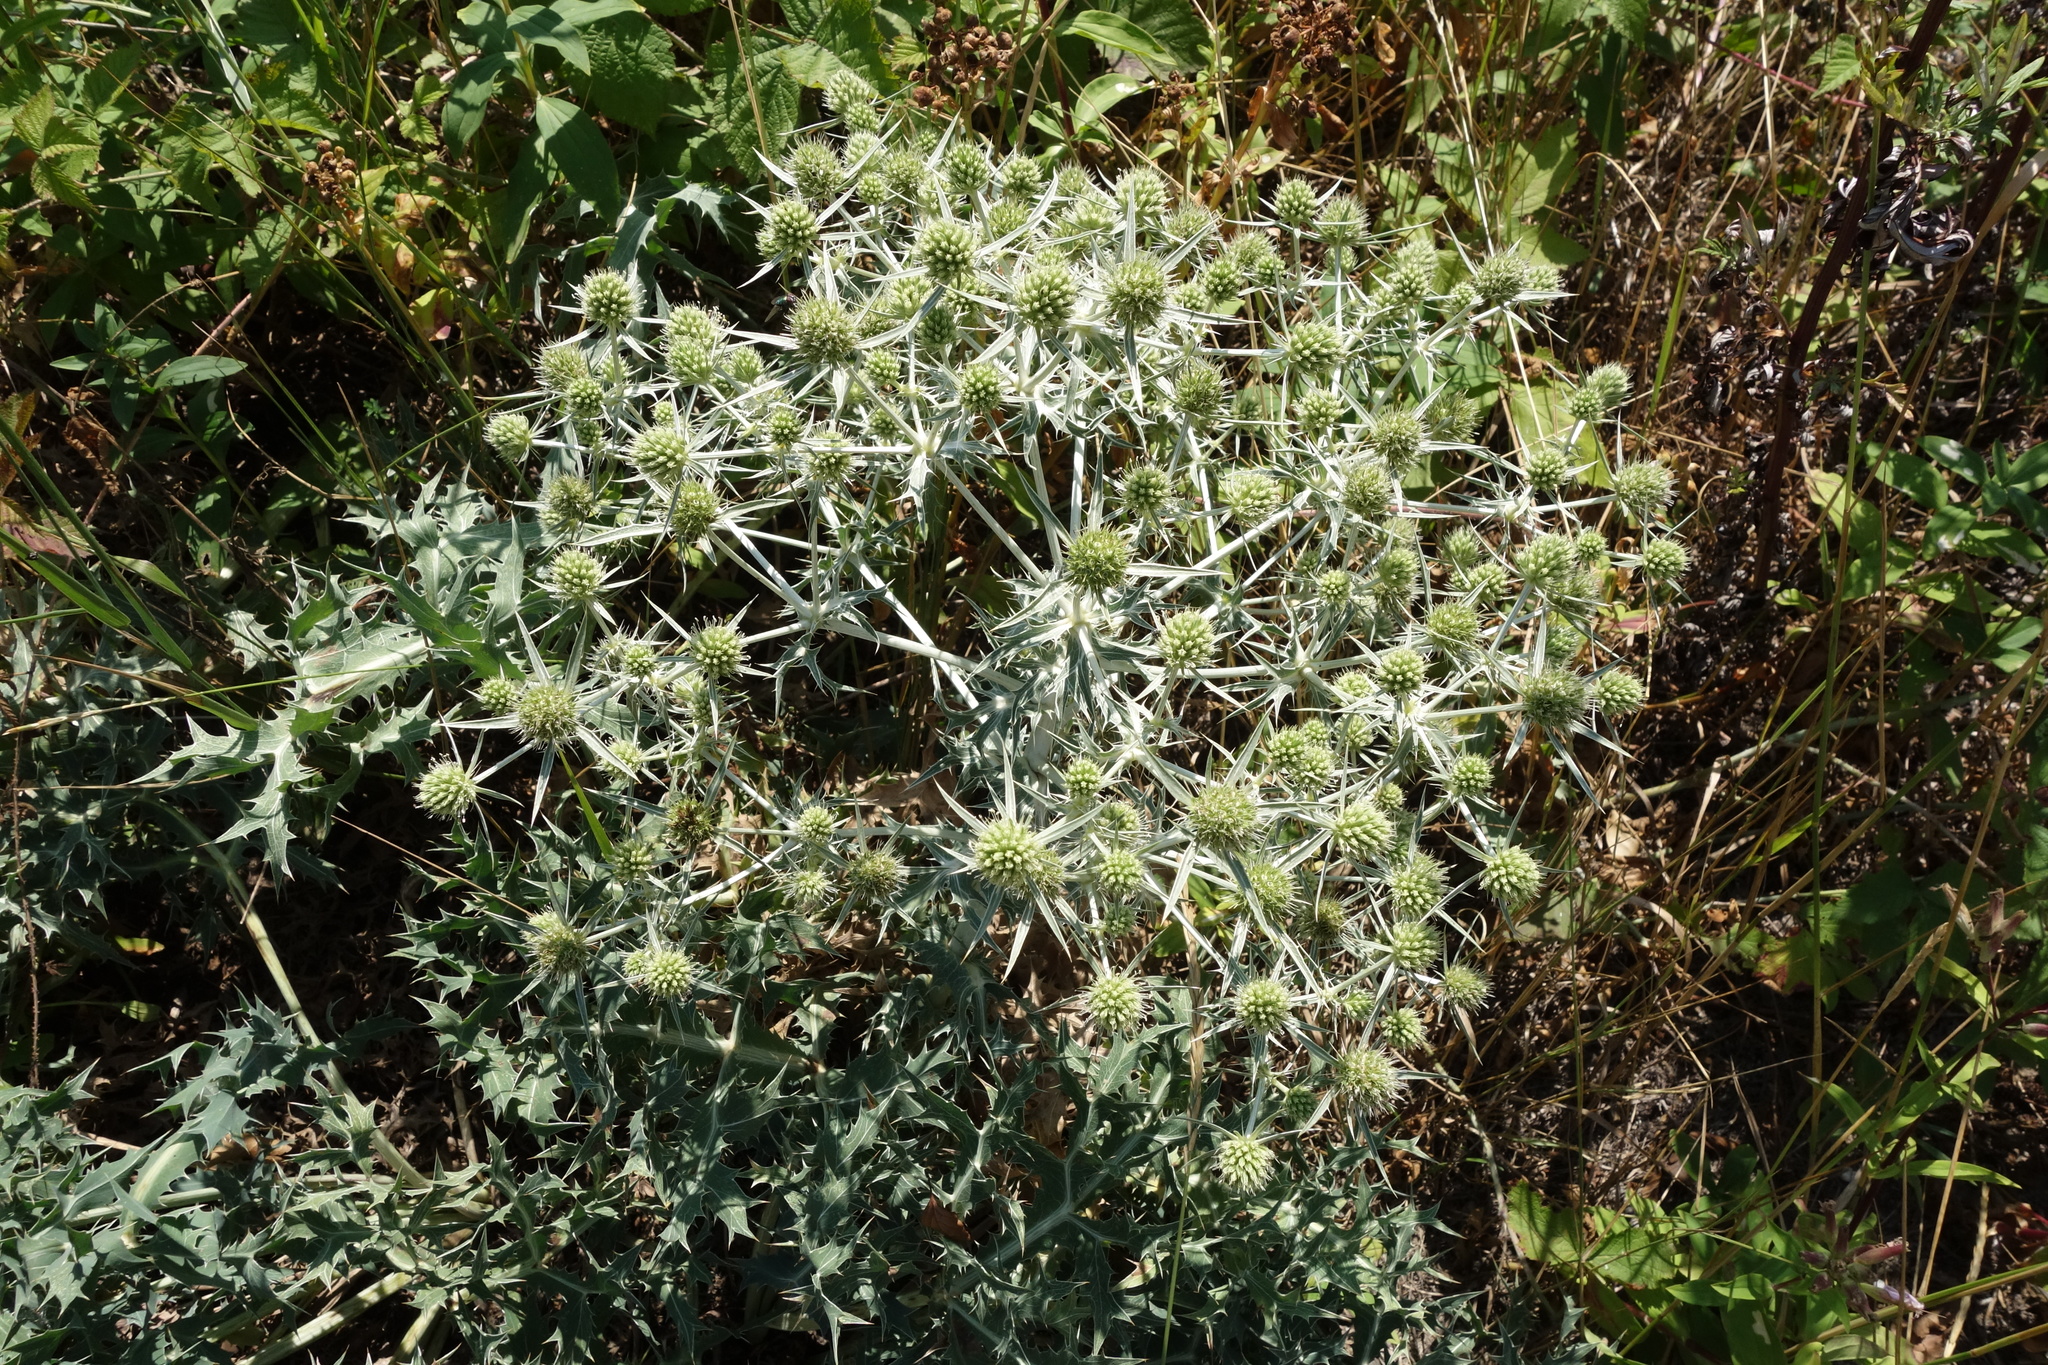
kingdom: Plantae
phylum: Tracheophyta
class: Magnoliopsida
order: Apiales
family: Apiaceae
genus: Eryngium
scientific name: Eryngium campestre
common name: Field eryngo
